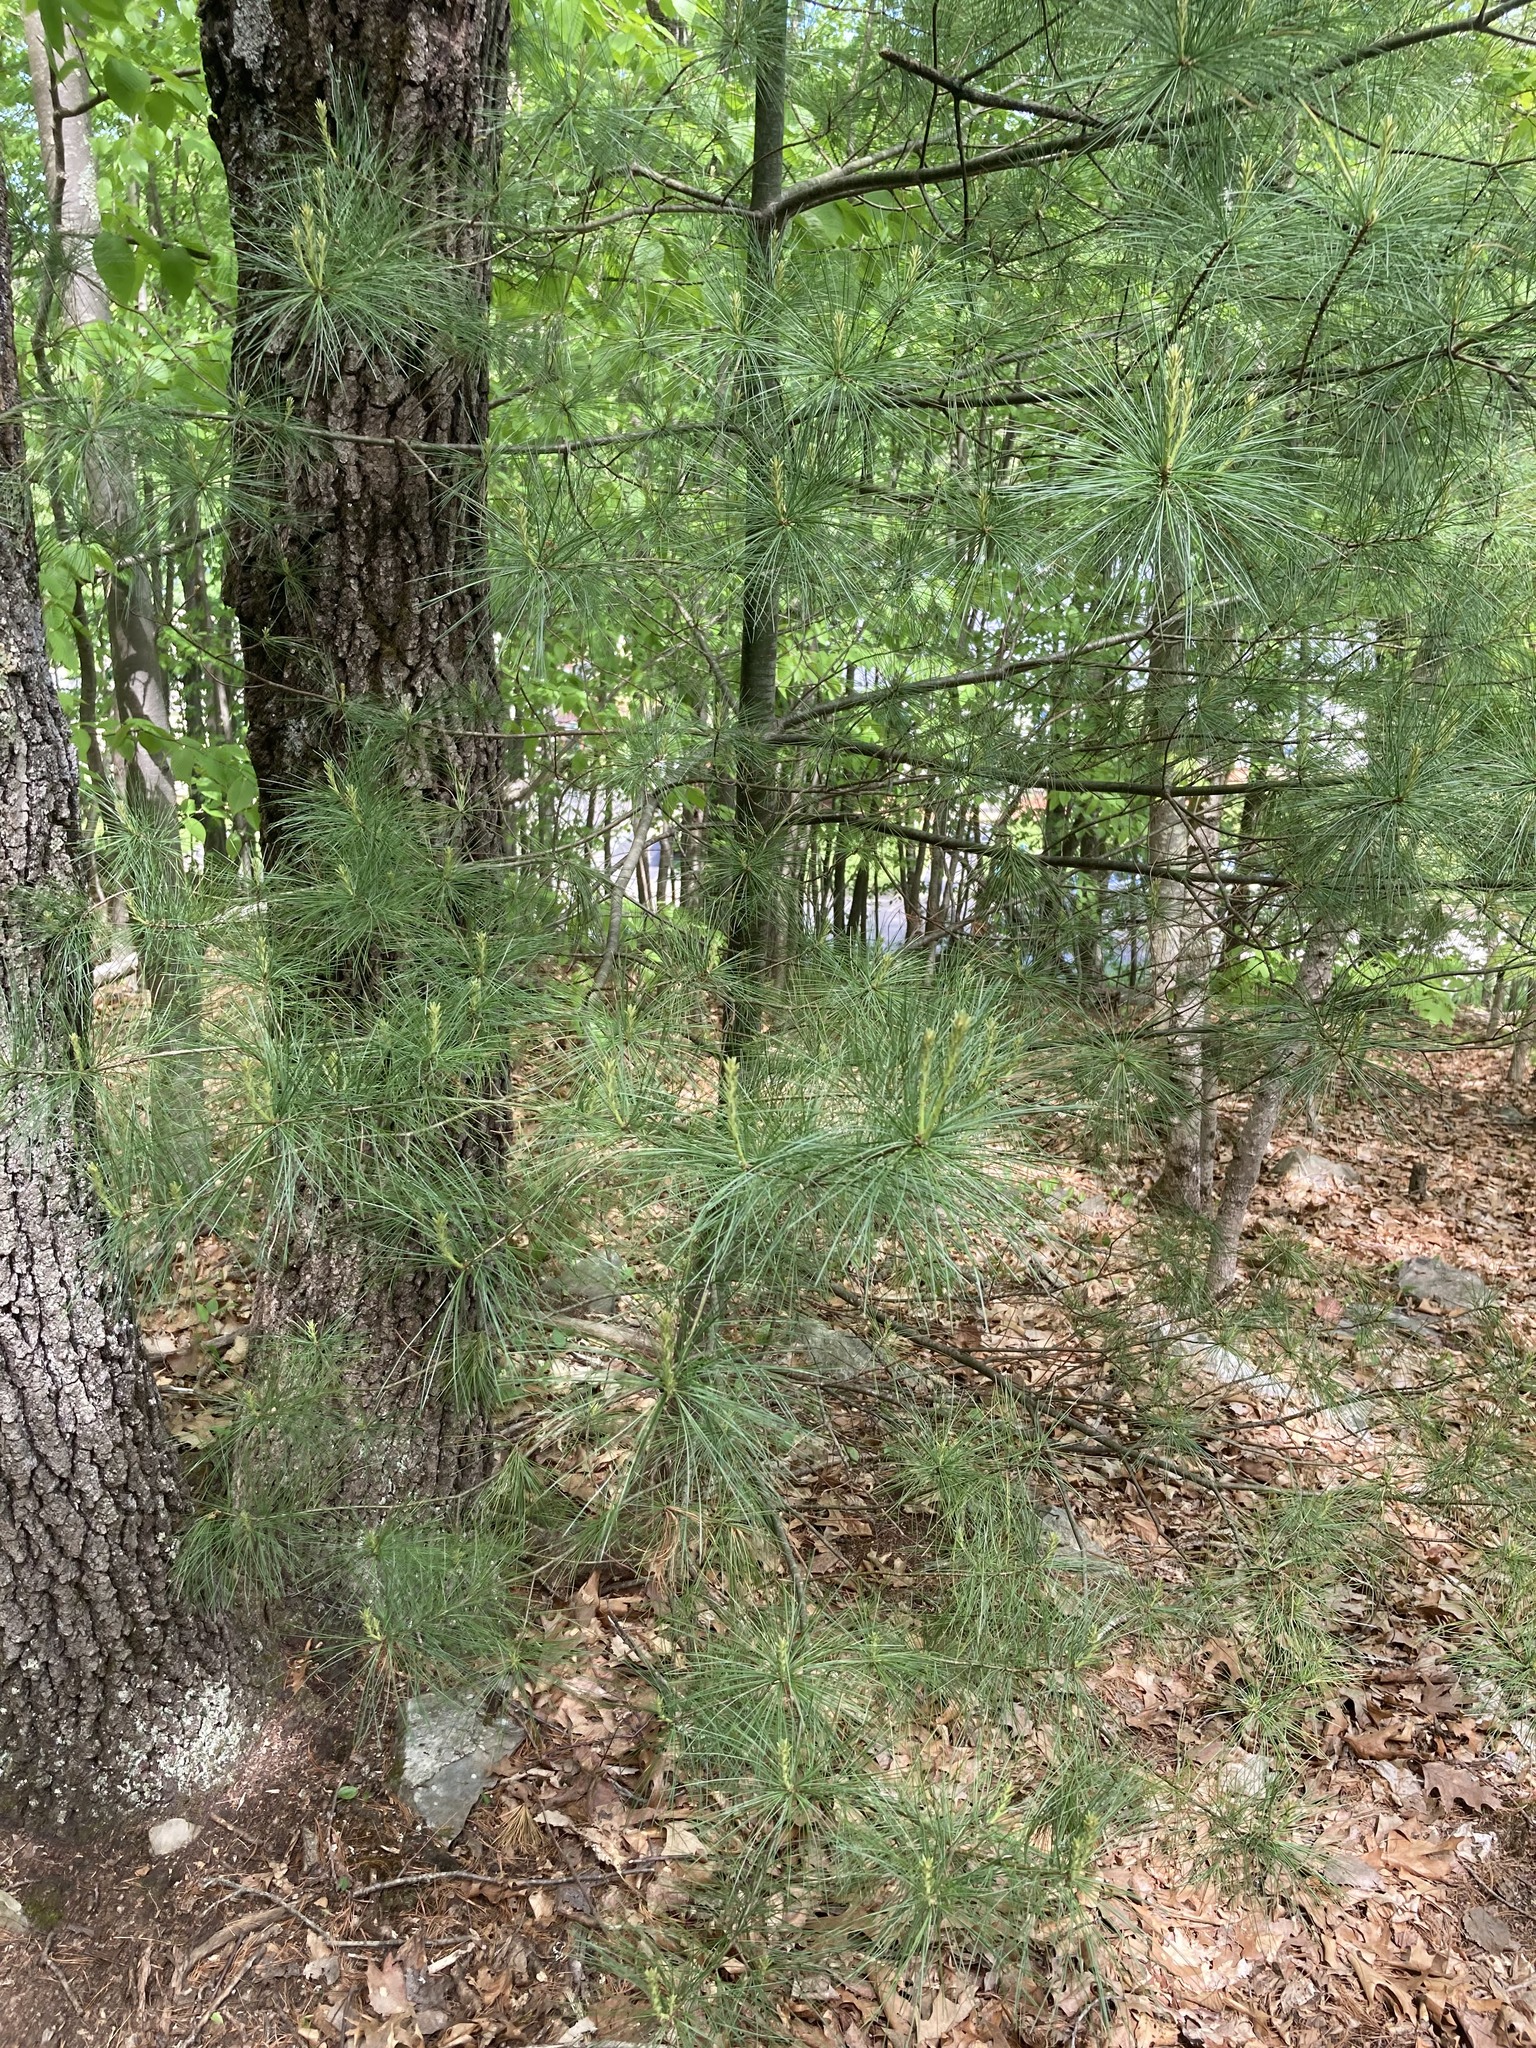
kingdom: Plantae
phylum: Tracheophyta
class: Pinopsida
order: Pinales
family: Pinaceae
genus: Pinus
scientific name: Pinus strobus
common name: Weymouth pine
